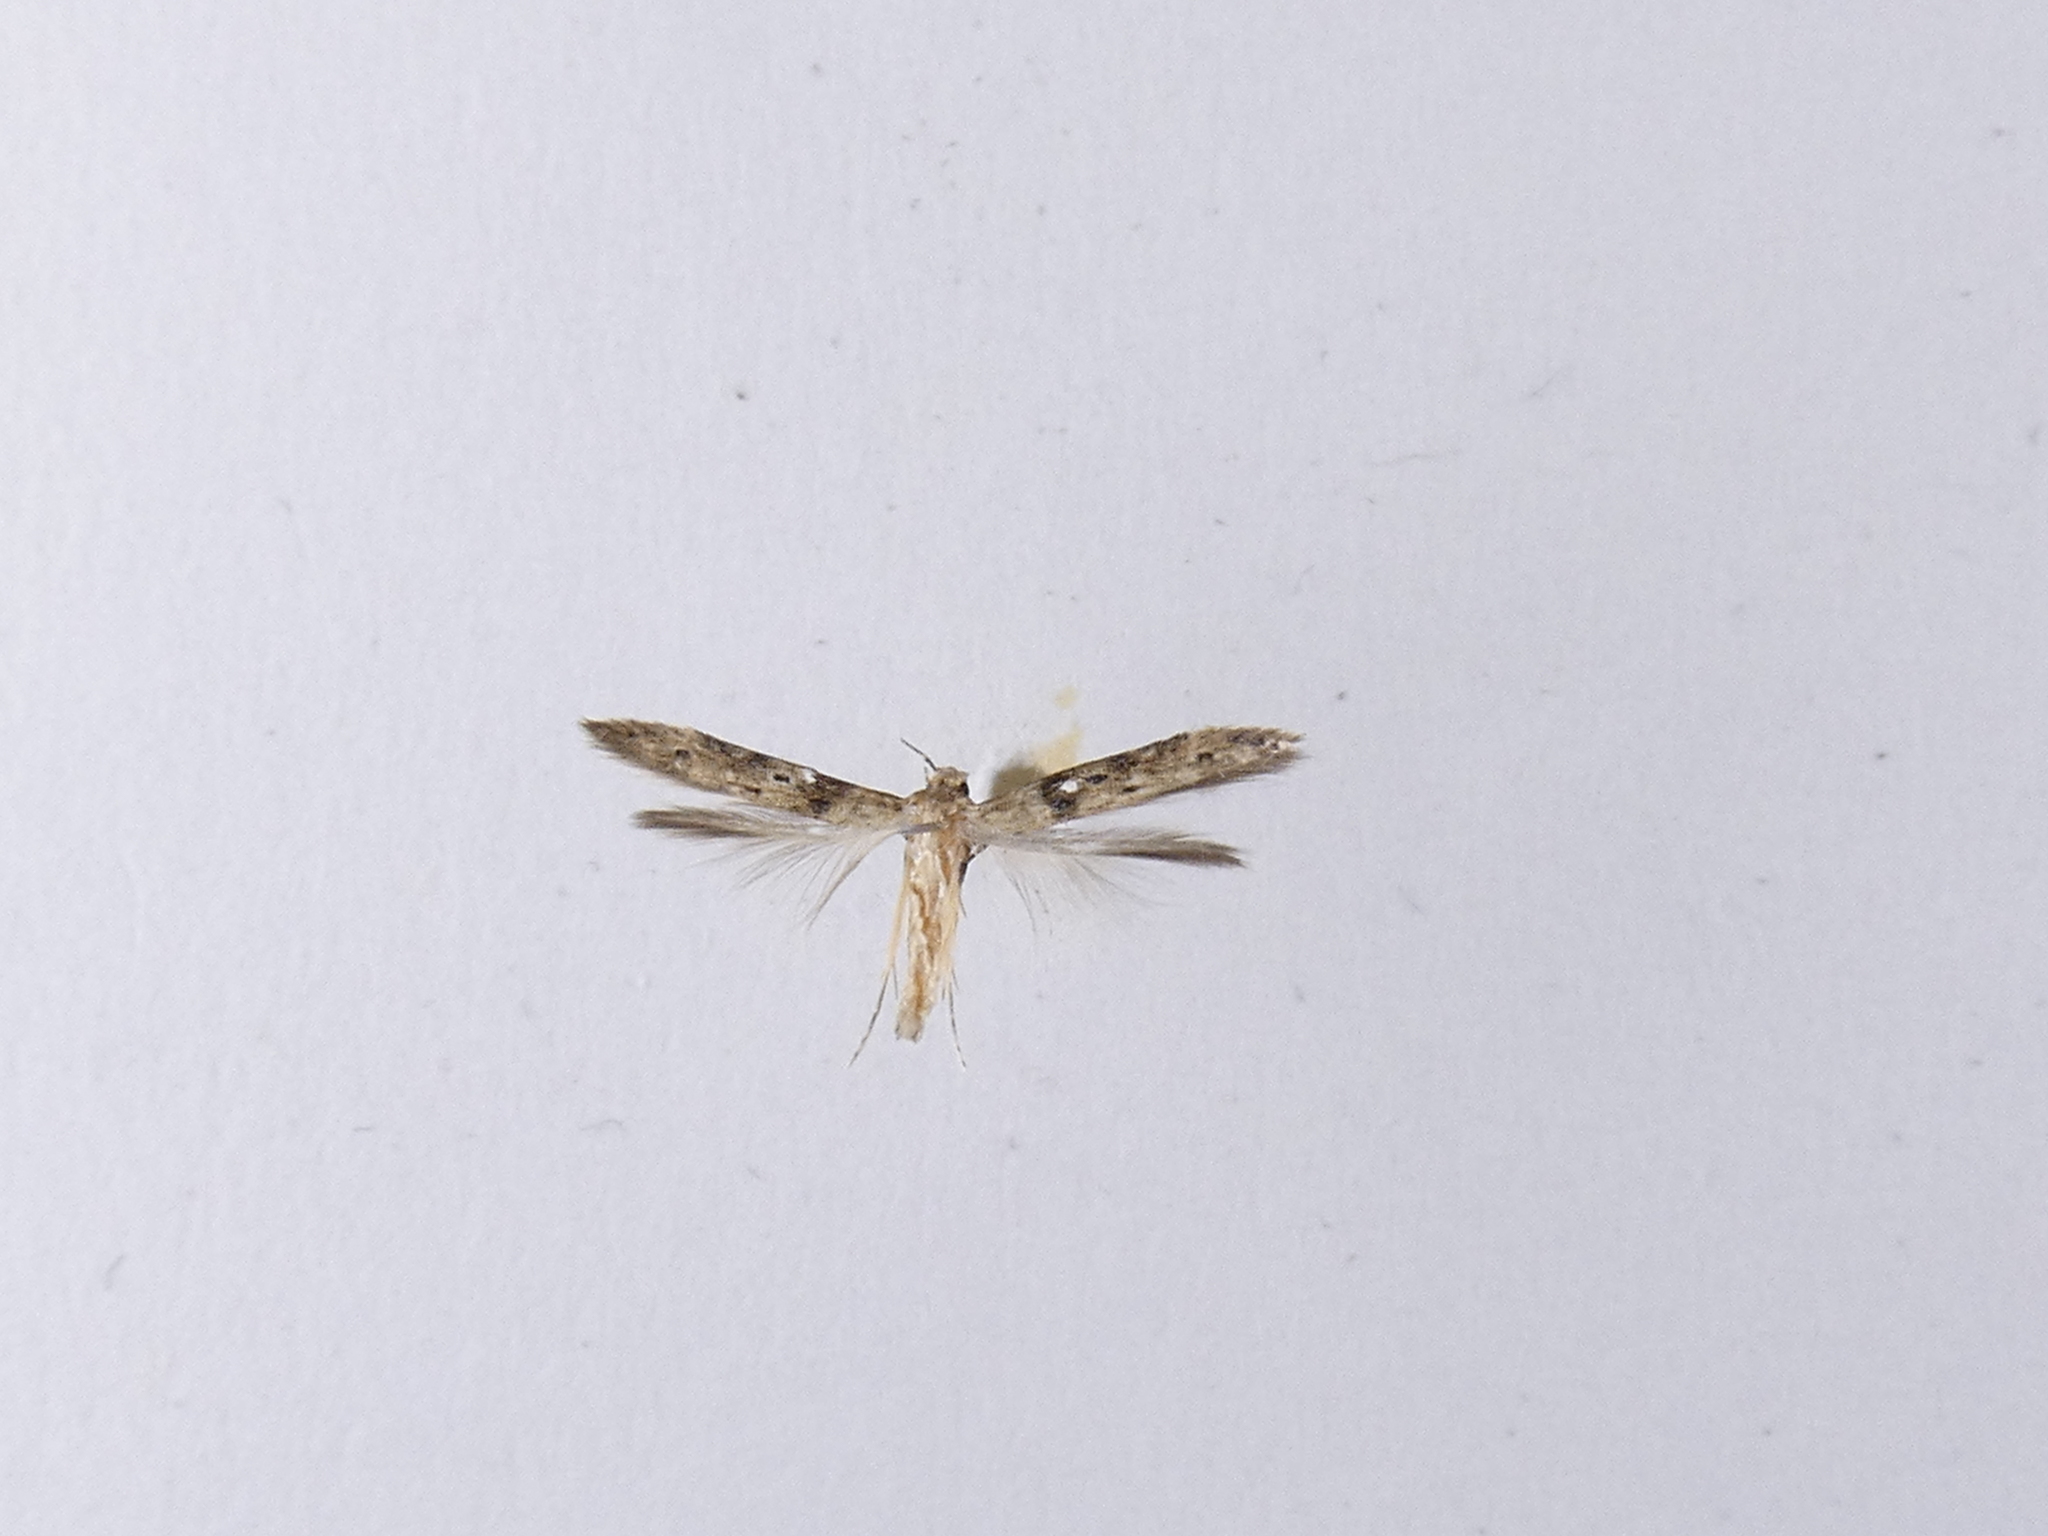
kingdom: Animalia
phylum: Arthropoda
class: Insecta
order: Lepidoptera
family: Elachistidae
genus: Microcolona
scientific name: Microcolona limodes
